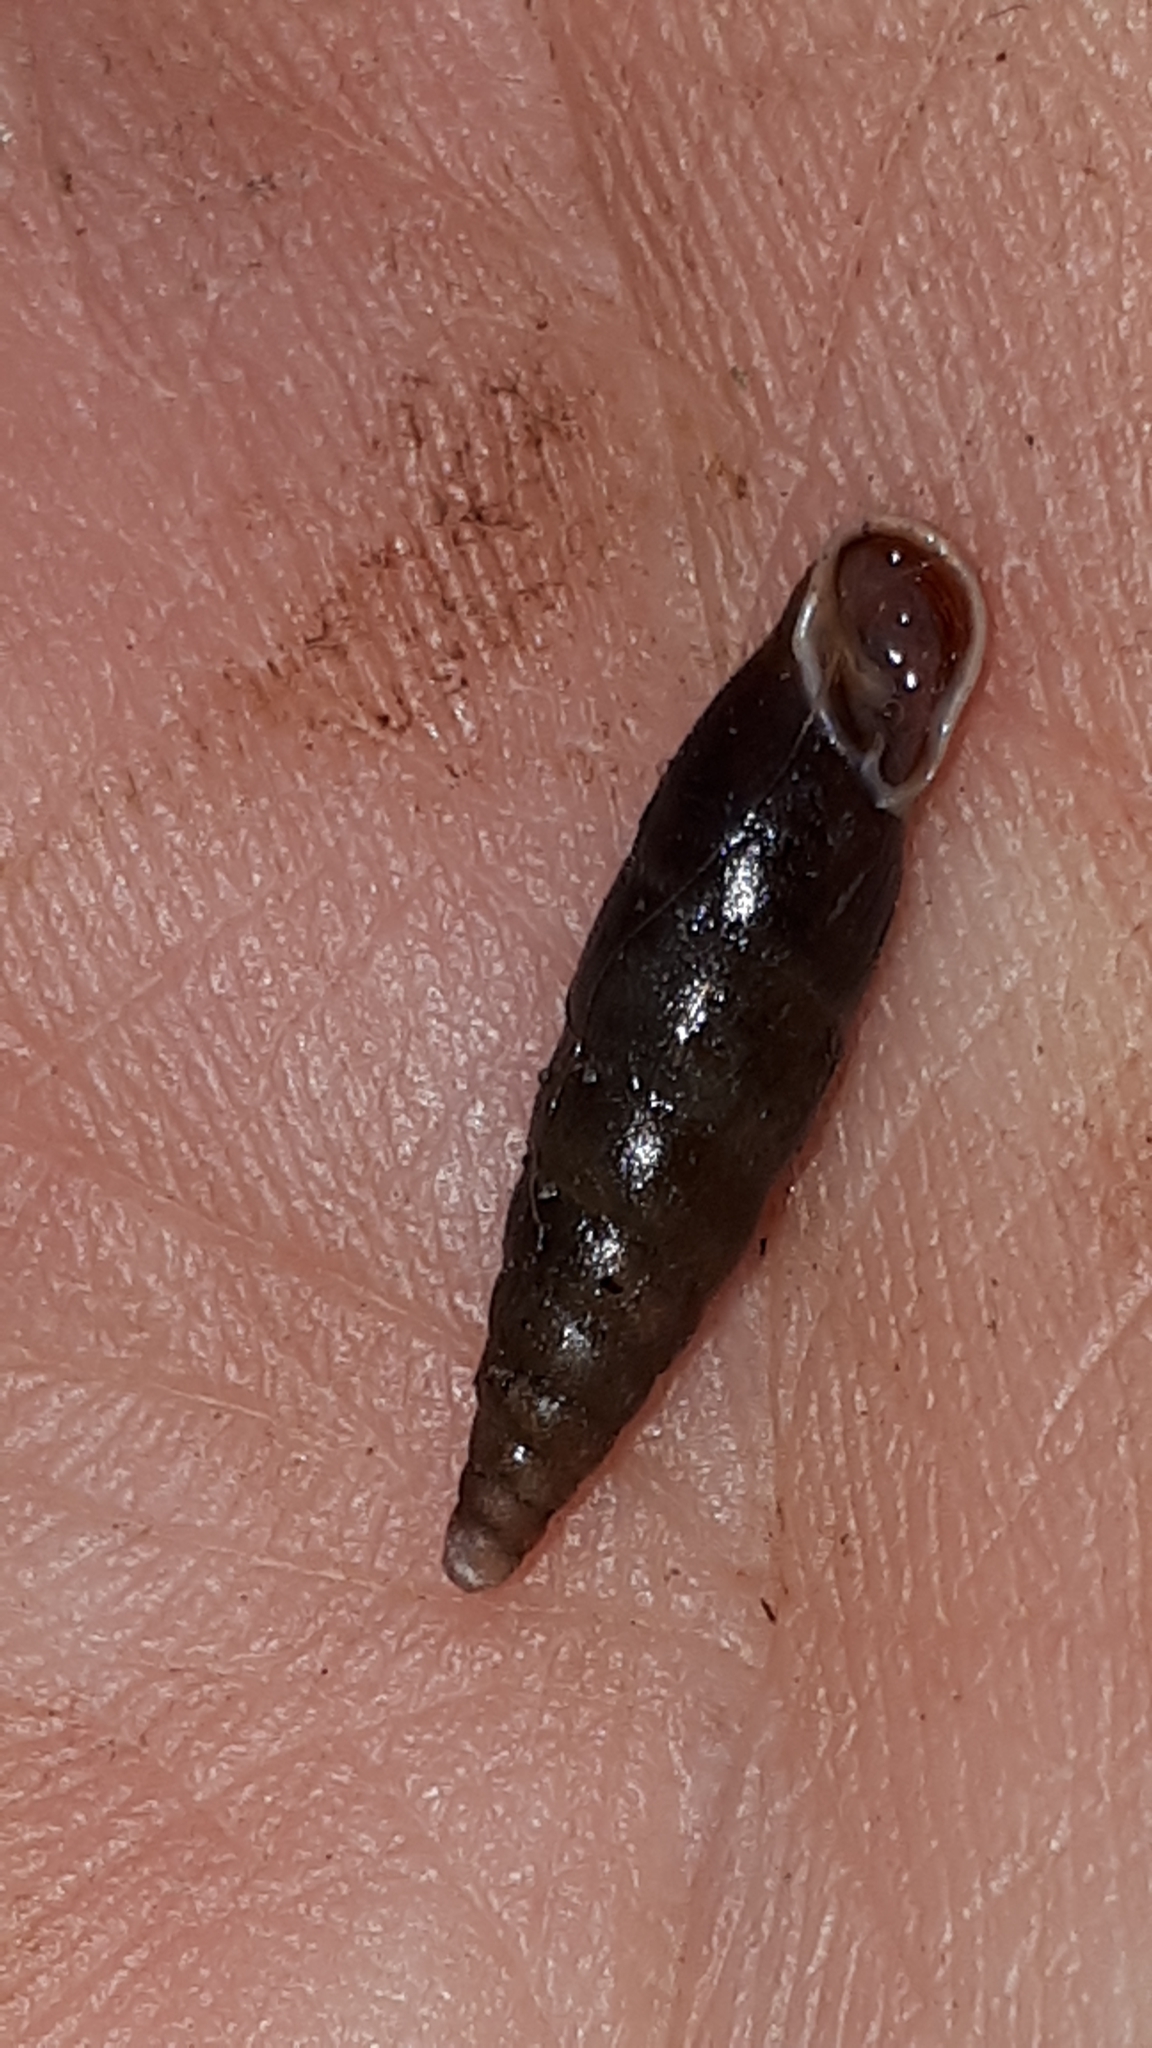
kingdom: Animalia
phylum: Mollusca
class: Gastropoda
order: Stylommatophora
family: Clausiliidae
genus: Cochlodina
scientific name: Cochlodina laminata
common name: Plaited door snail
